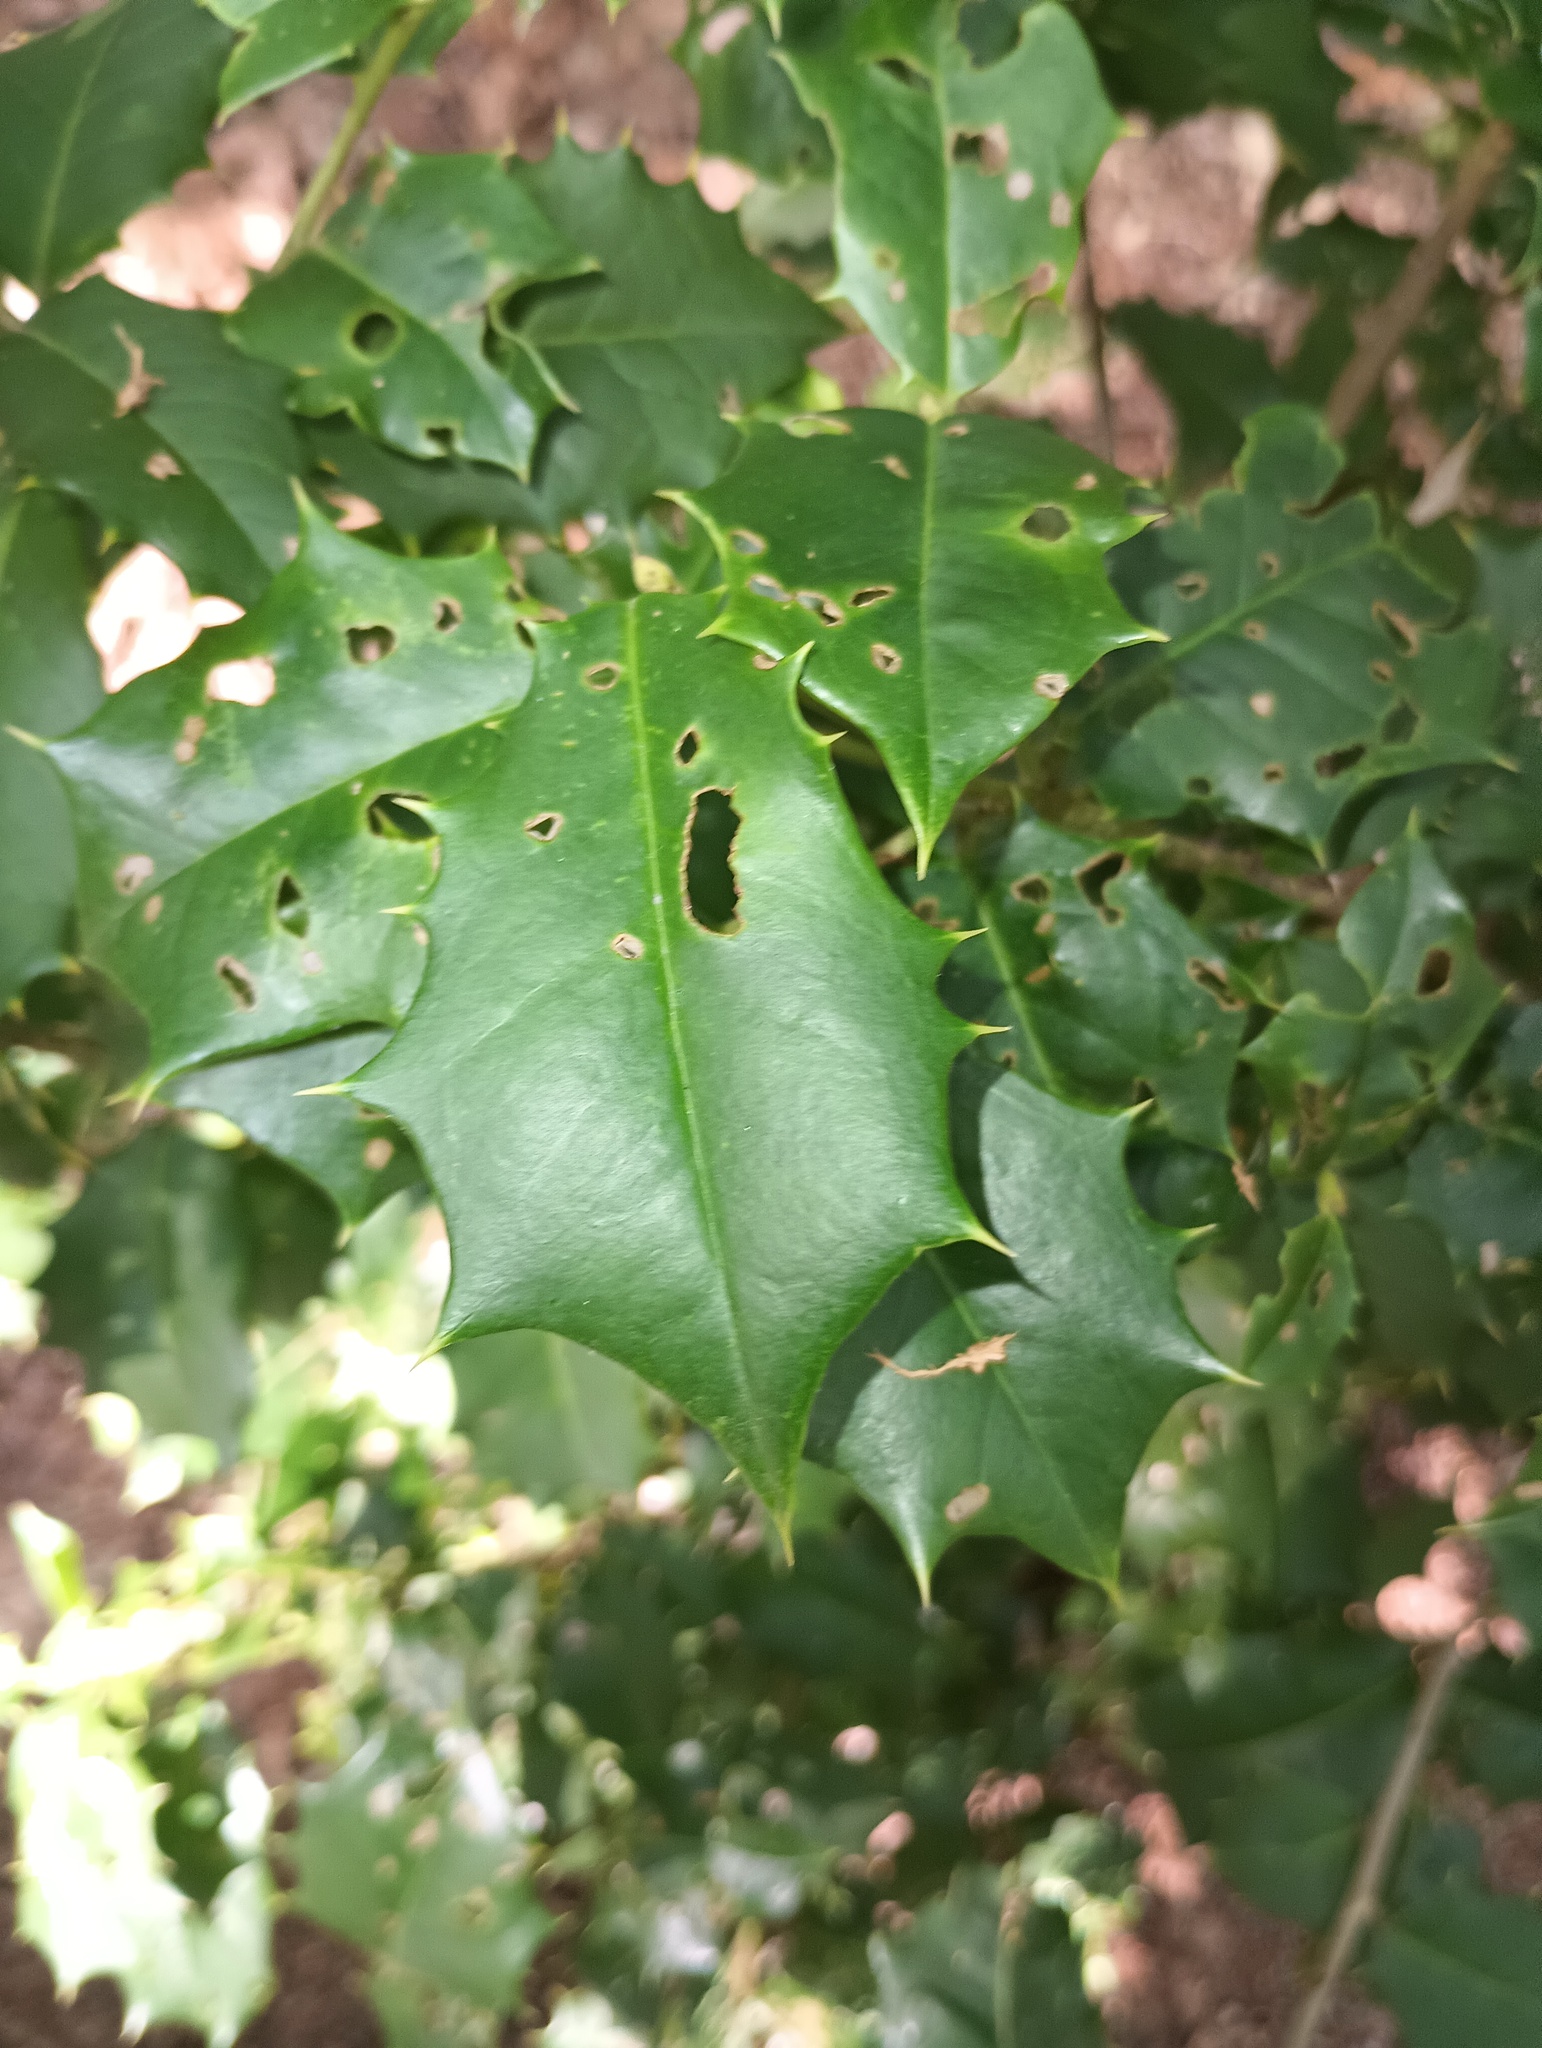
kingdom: Plantae
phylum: Tracheophyta
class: Magnoliopsida
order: Aquifoliales
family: Aquifoliaceae
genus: Ilex
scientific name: Ilex opaca
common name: American holly
